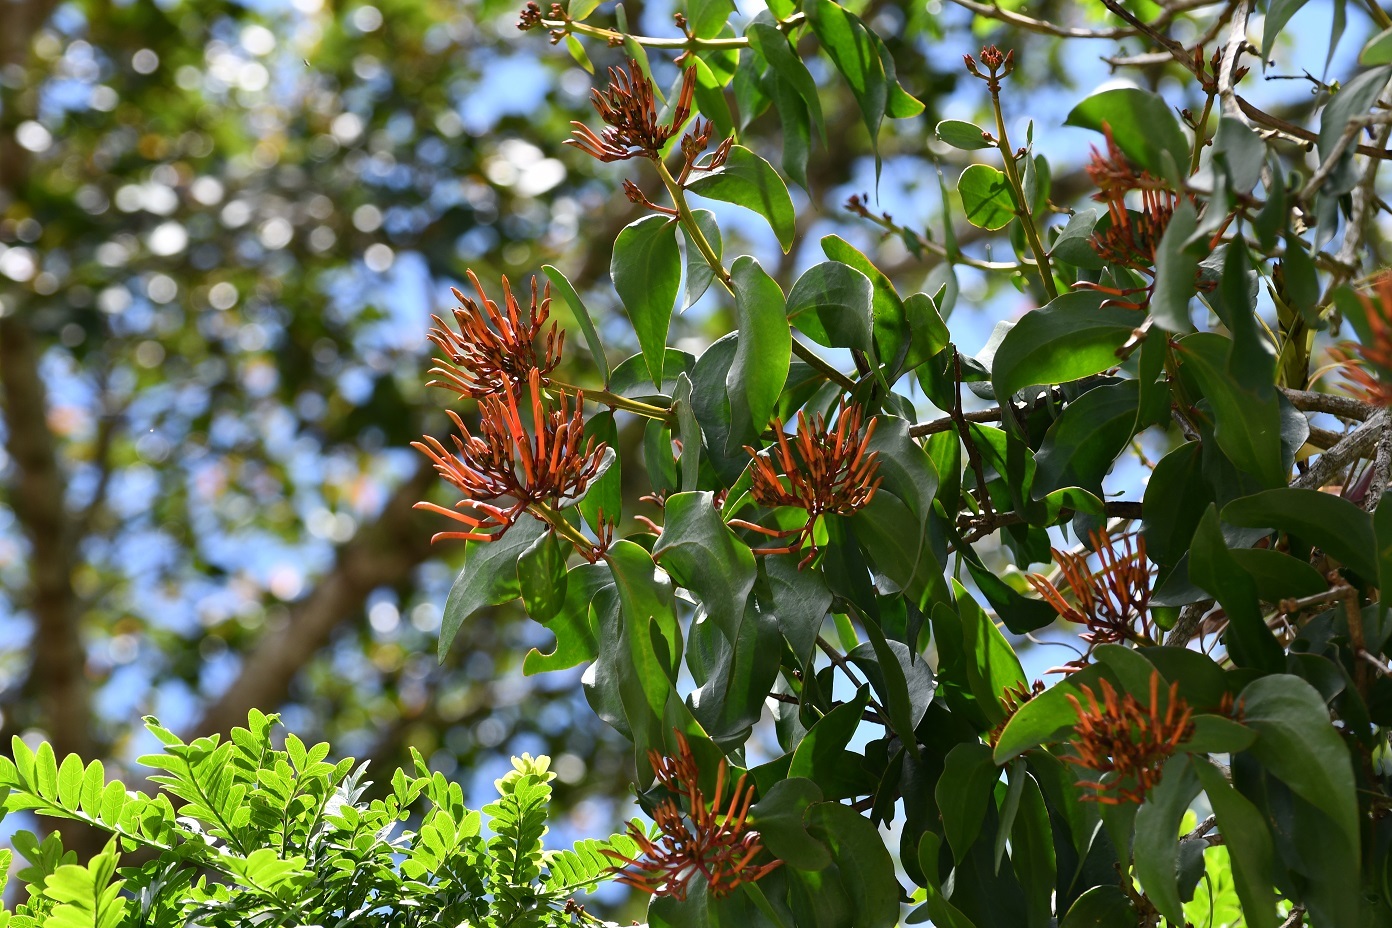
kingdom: Plantae
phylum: Tracheophyta
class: Magnoliopsida
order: Santalales
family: Loranthaceae
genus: Psittacanthus
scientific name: Psittacanthus rhynchanthus
